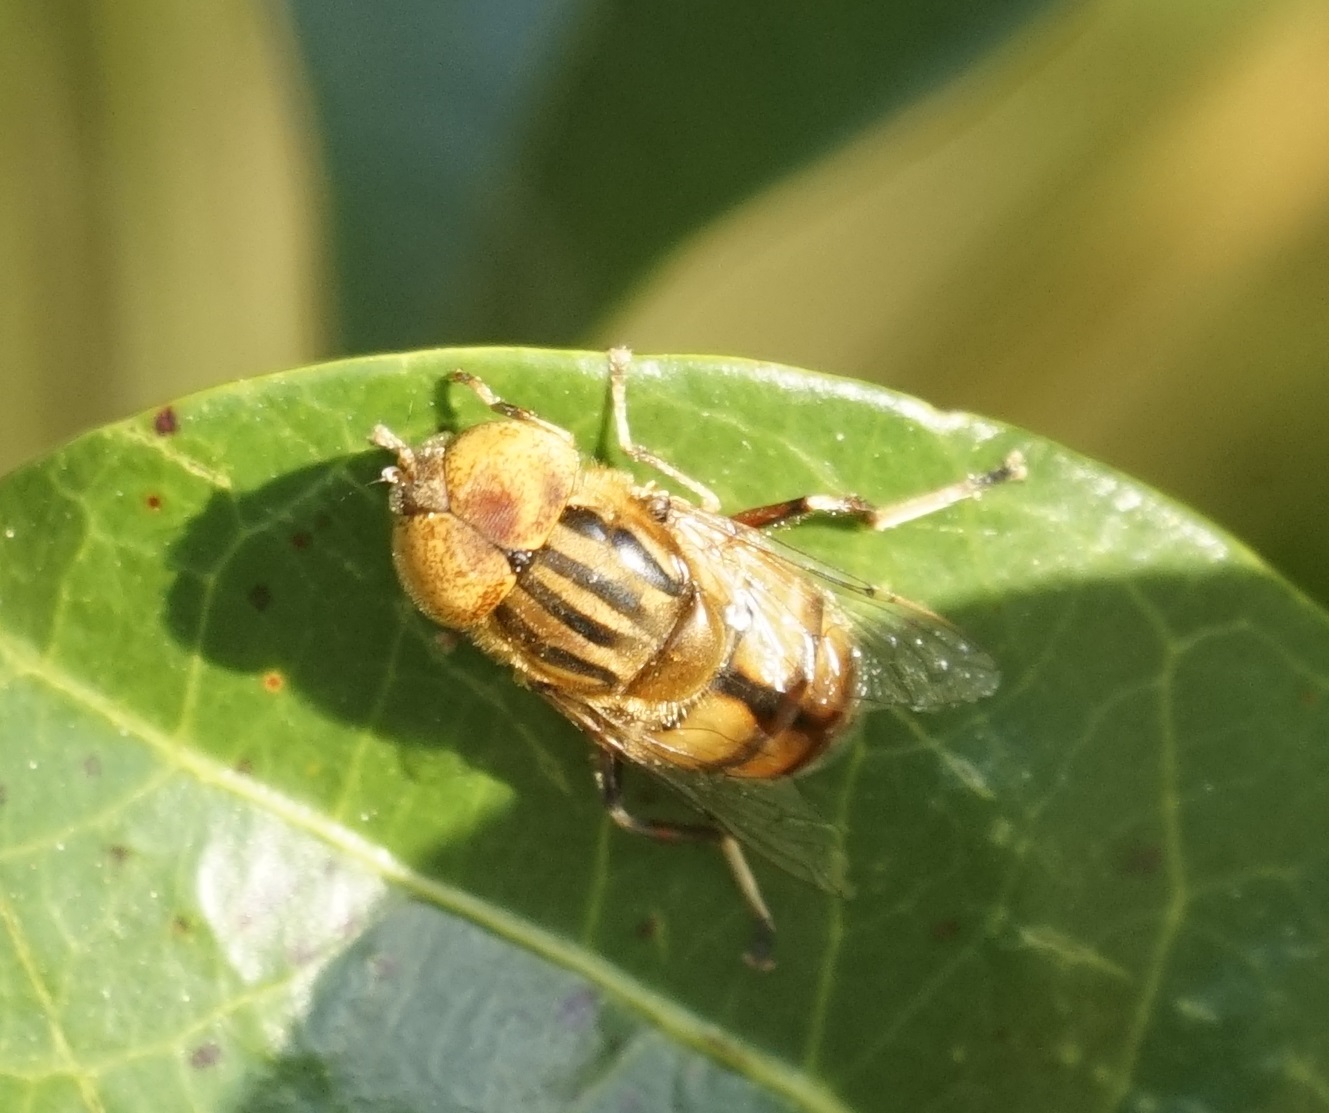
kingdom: Animalia
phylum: Arthropoda
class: Insecta
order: Diptera
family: Syrphidae
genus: Eristalinus
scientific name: Eristalinus punctulatus
